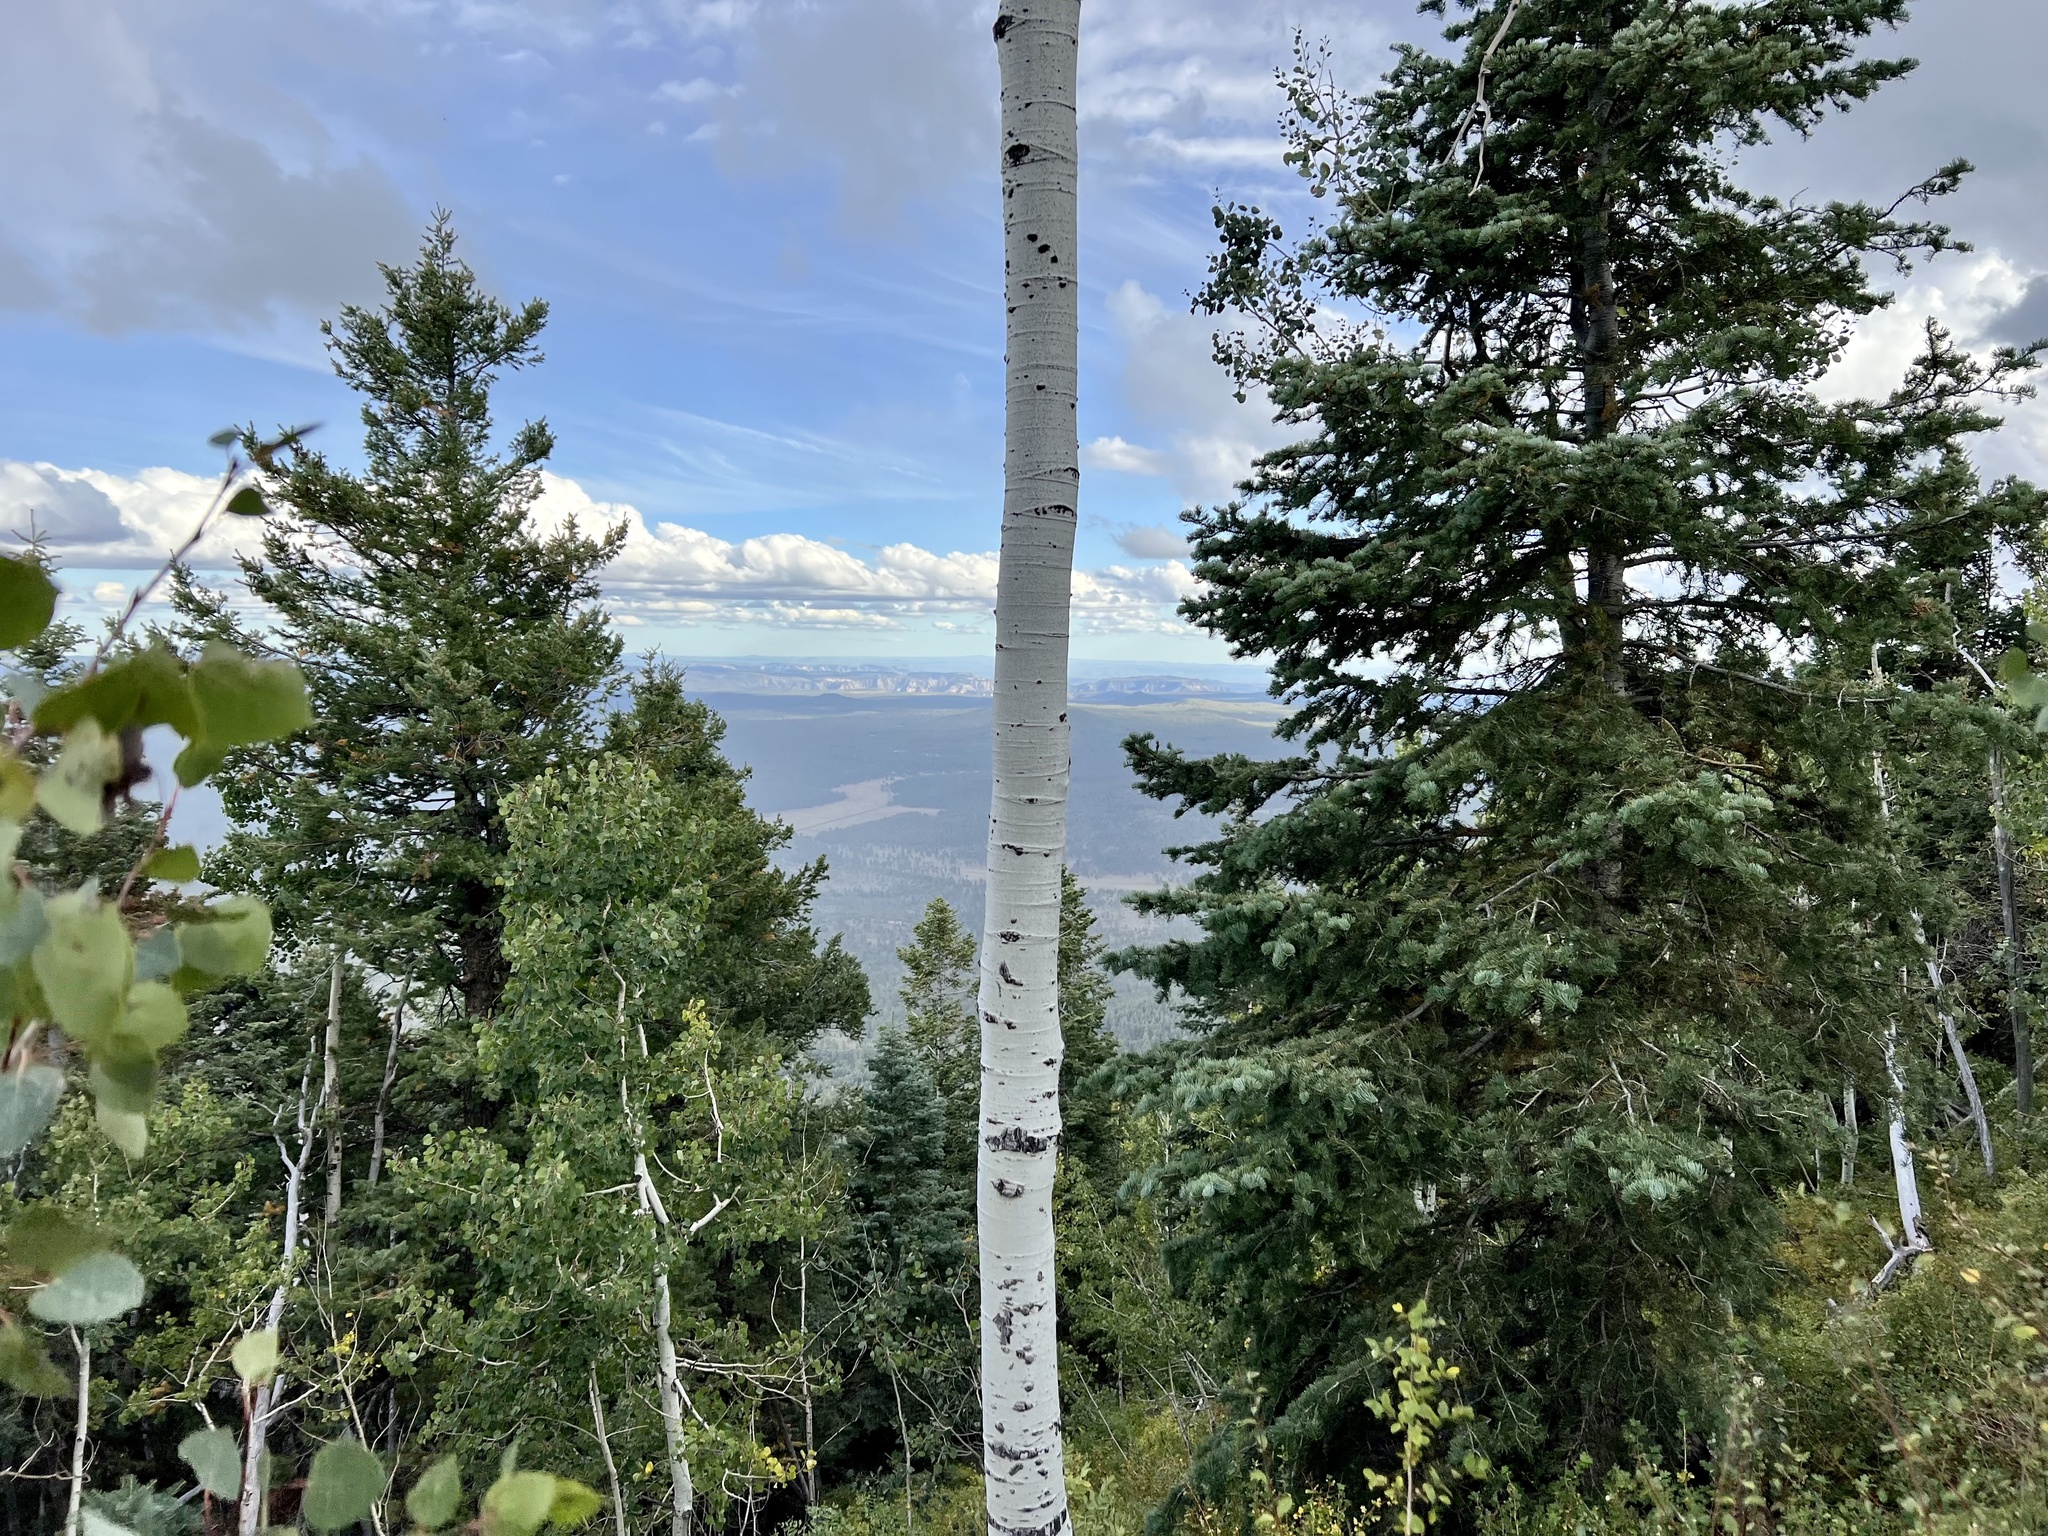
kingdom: Plantae
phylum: Tracheophyta
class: Magnoliopsida
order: Malpighiales
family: Salicaceae
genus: Populus
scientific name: Populus tremuloides
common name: Quaking aspen
